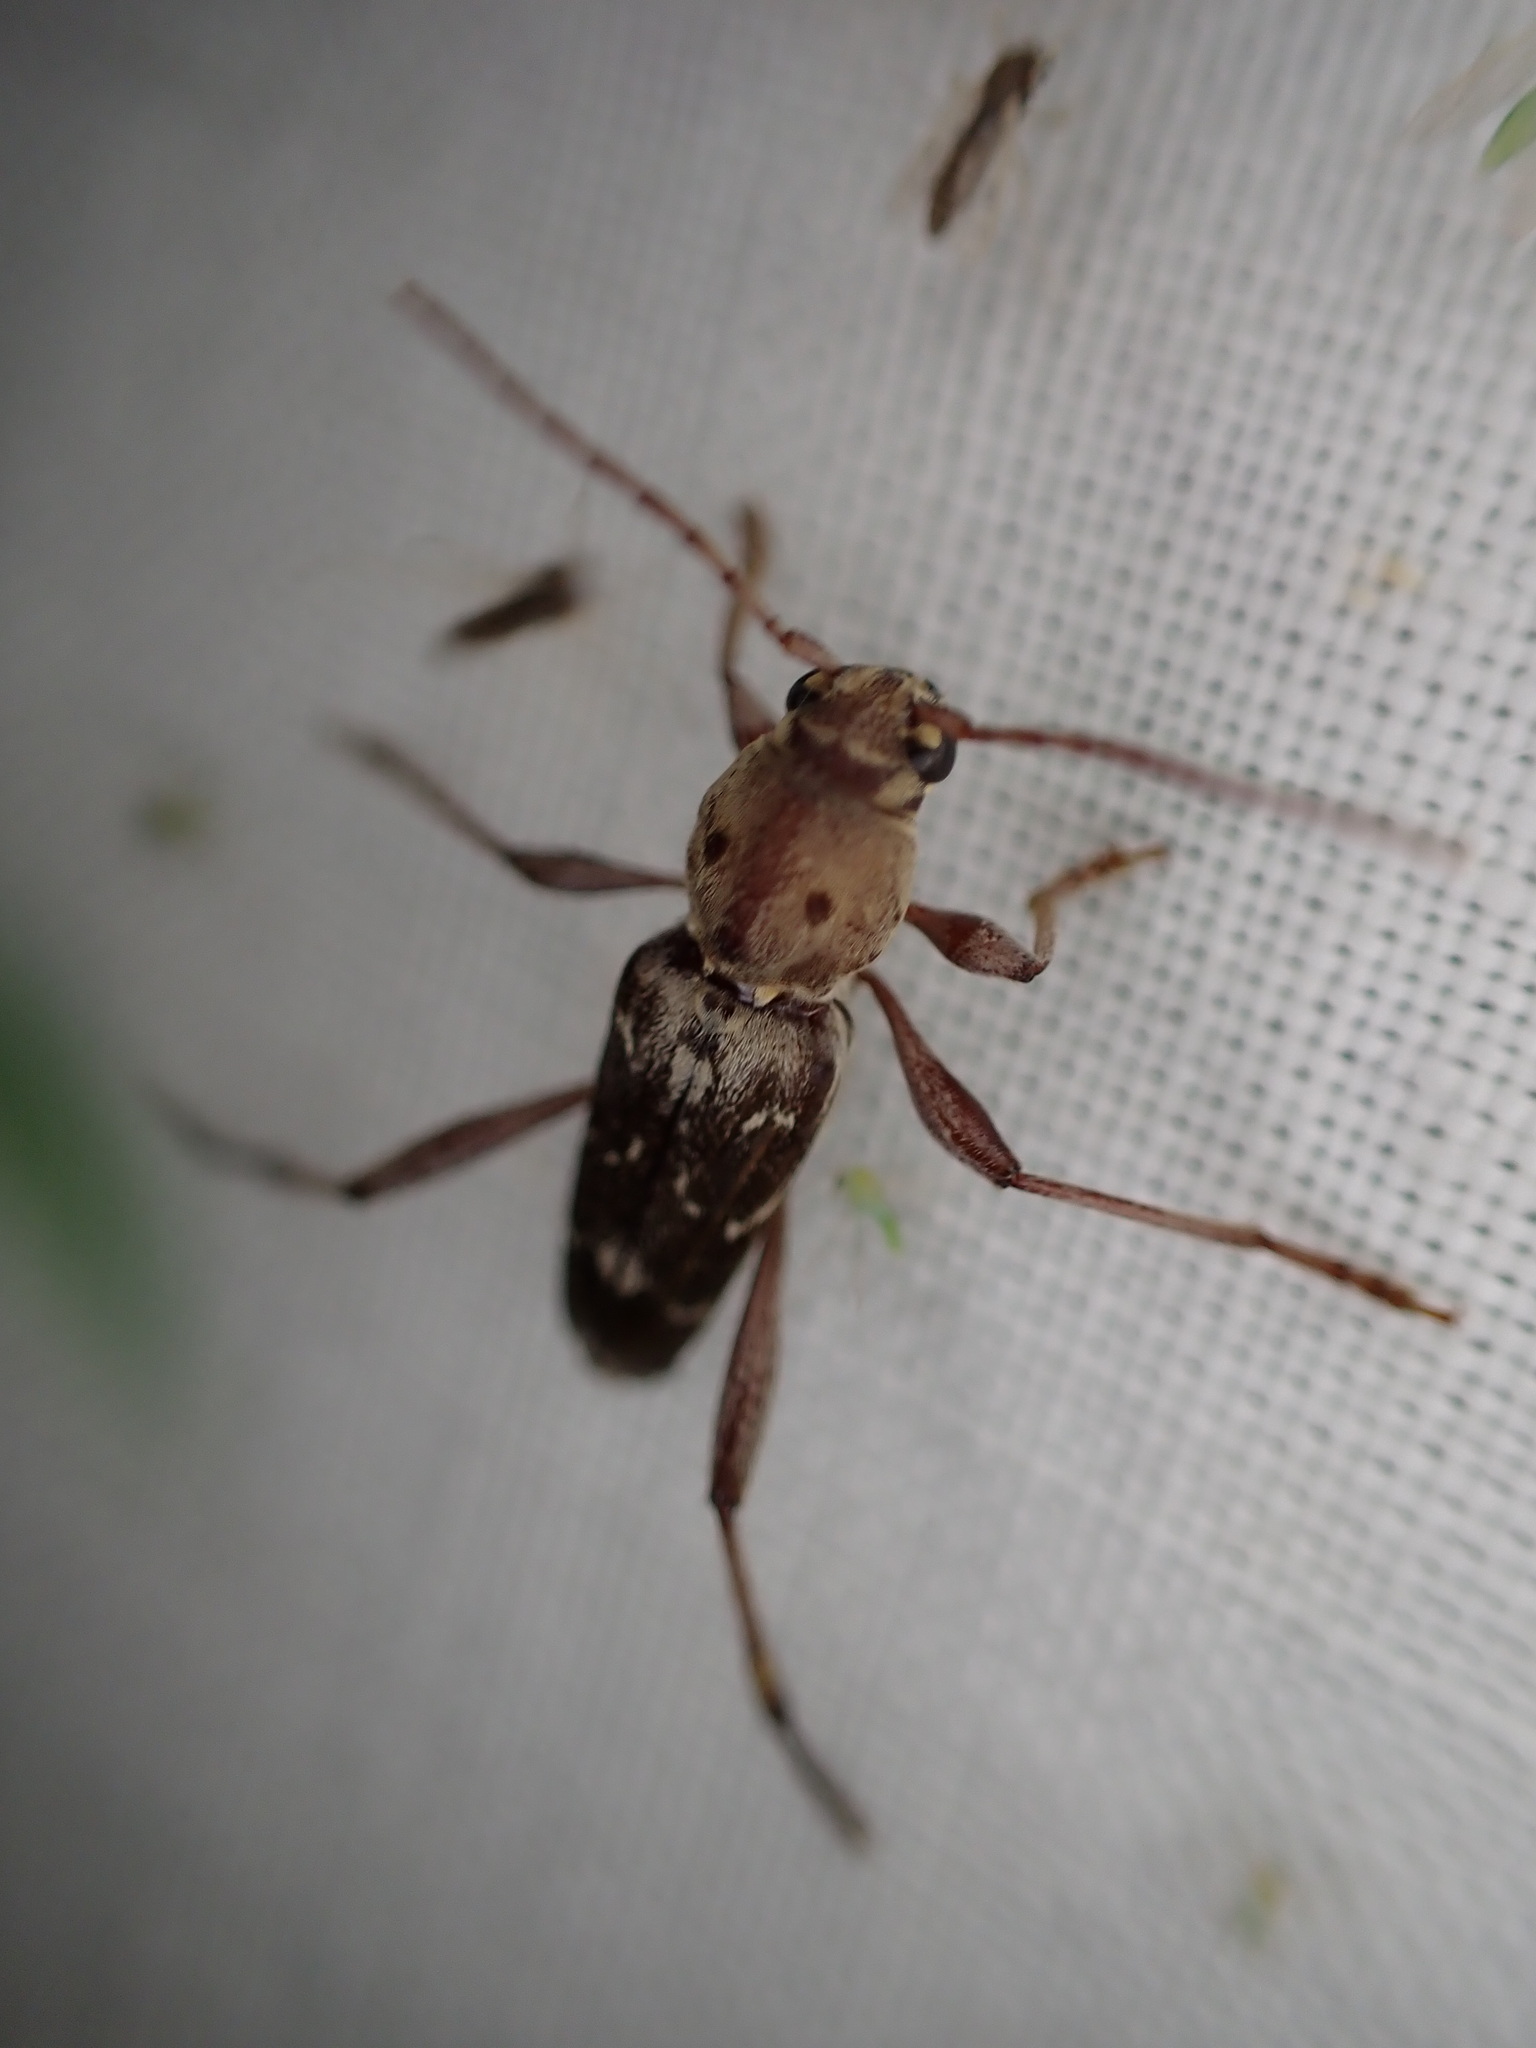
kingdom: Animalia
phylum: Arthropoda
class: Insecta
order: Coleoptera
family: Cerambycidae
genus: Xylotrechus
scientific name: Xylotrechus smei
